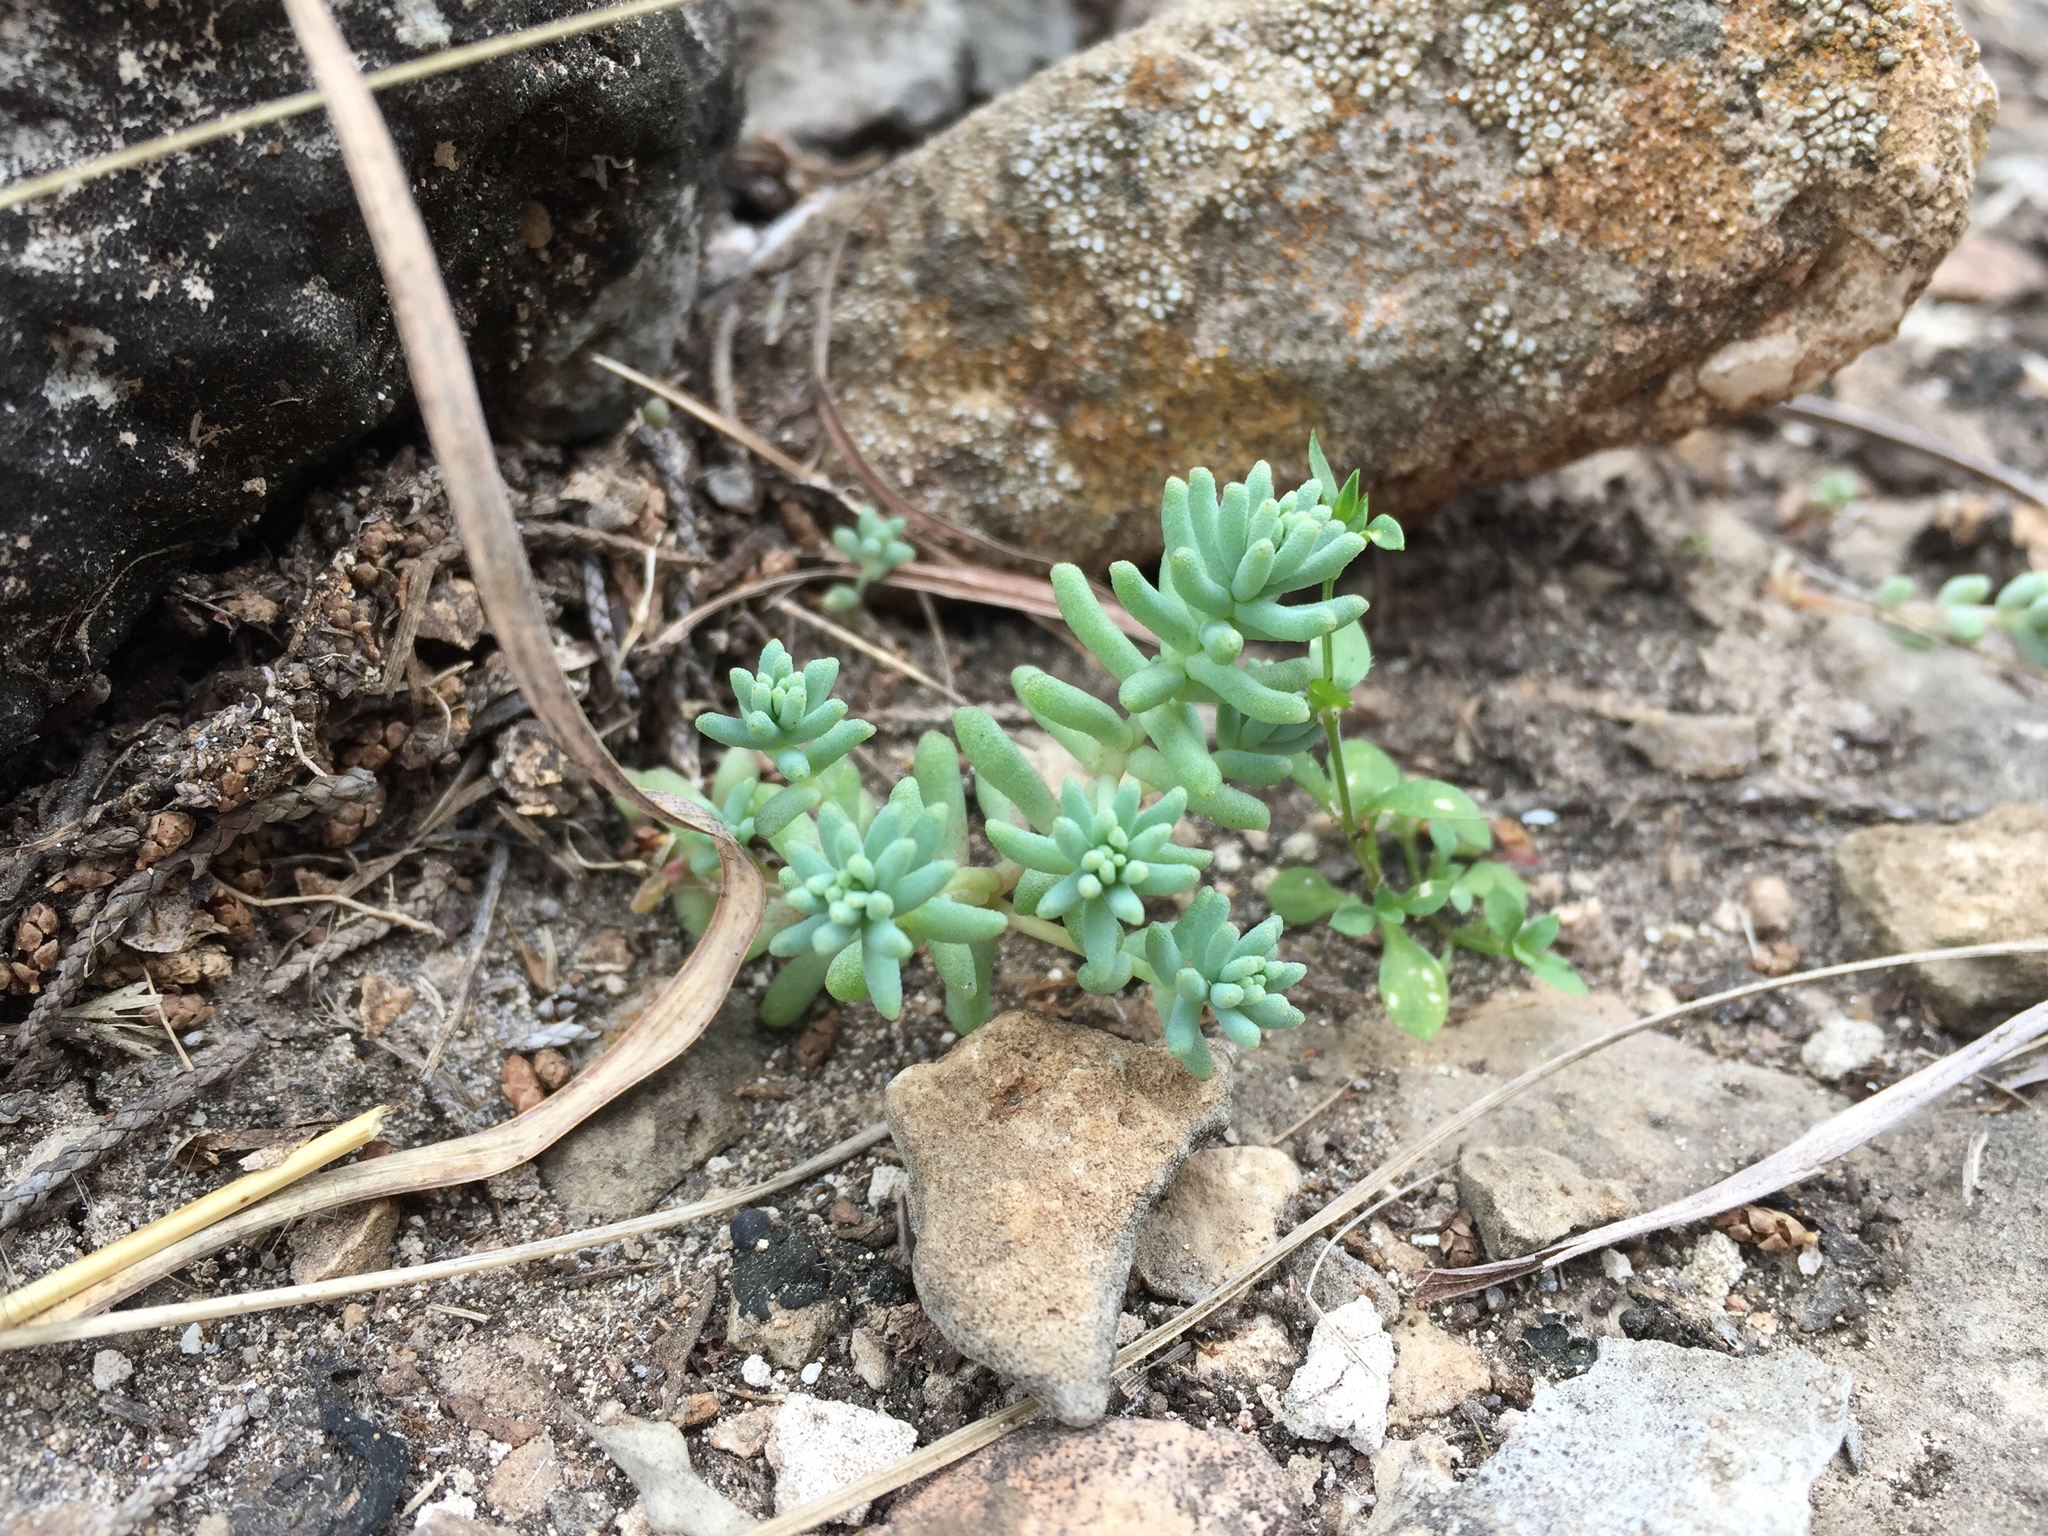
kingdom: Plantae
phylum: Tracheophyta
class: Magnoliopsida
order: Saxifragales
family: Crassulaceae
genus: Sedum
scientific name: Sedum nuttallii
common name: Yellow stonecrop
